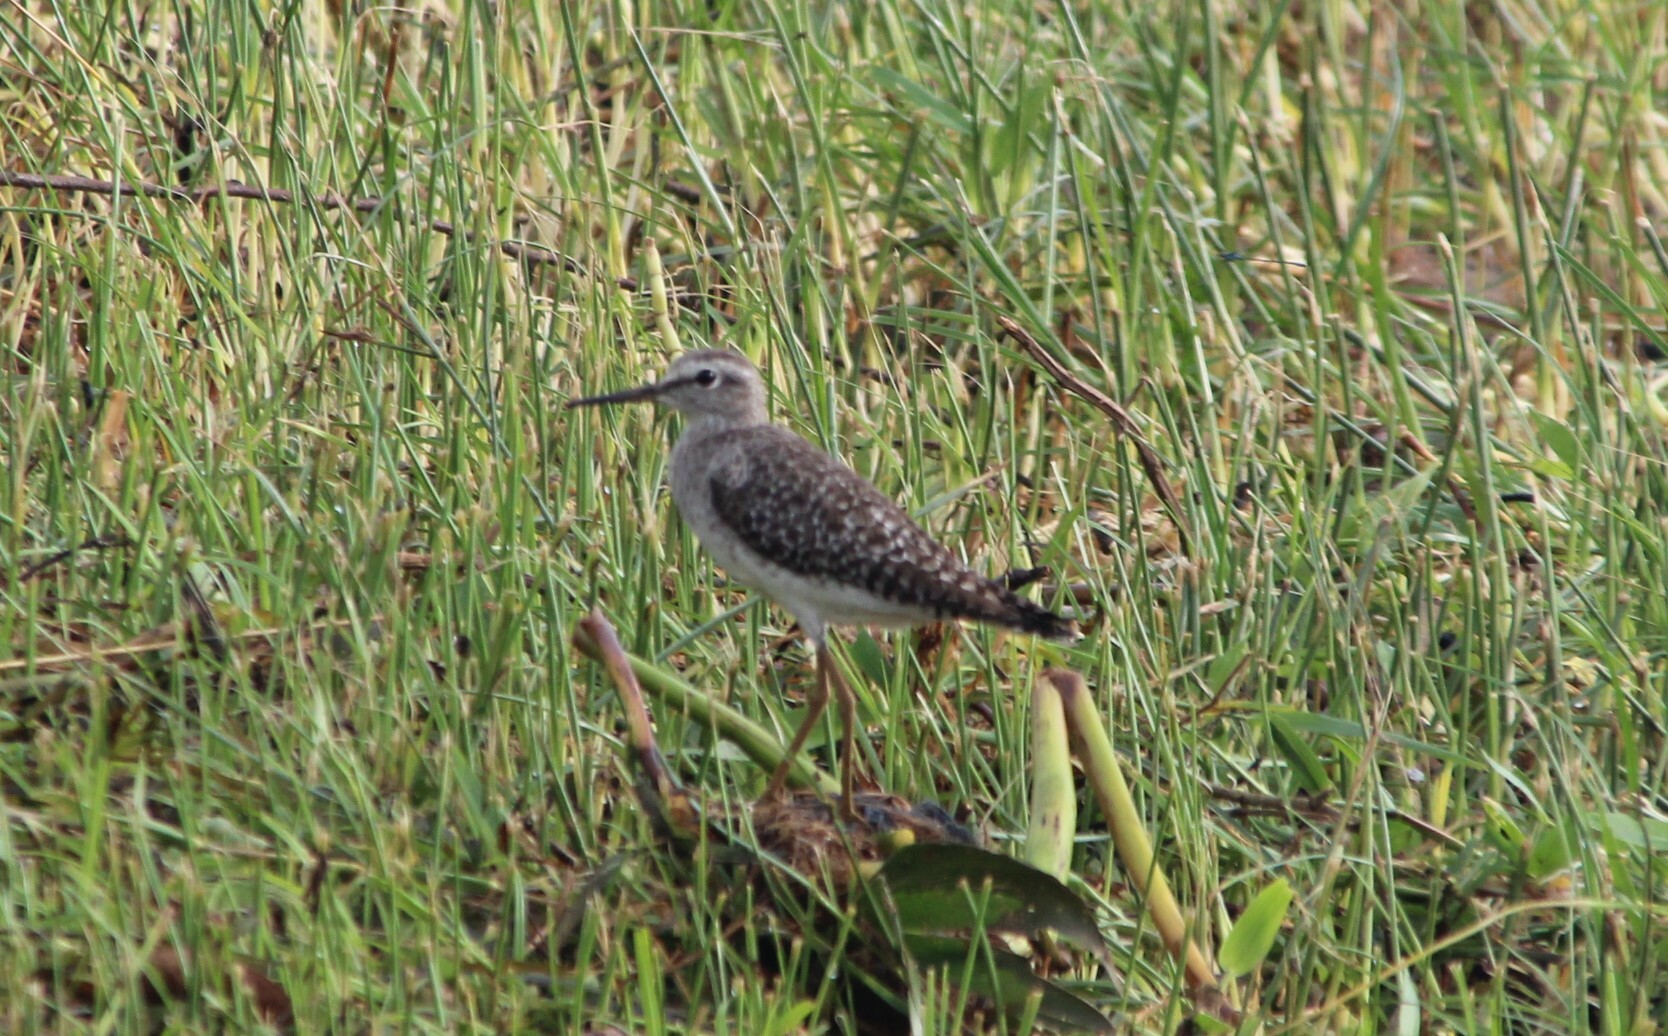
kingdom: Animalia
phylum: Chordata
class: Aves
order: Charadriiformes
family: Scolopacidae
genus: Tringa
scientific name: Tringa glareola
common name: Wood sandpiper
